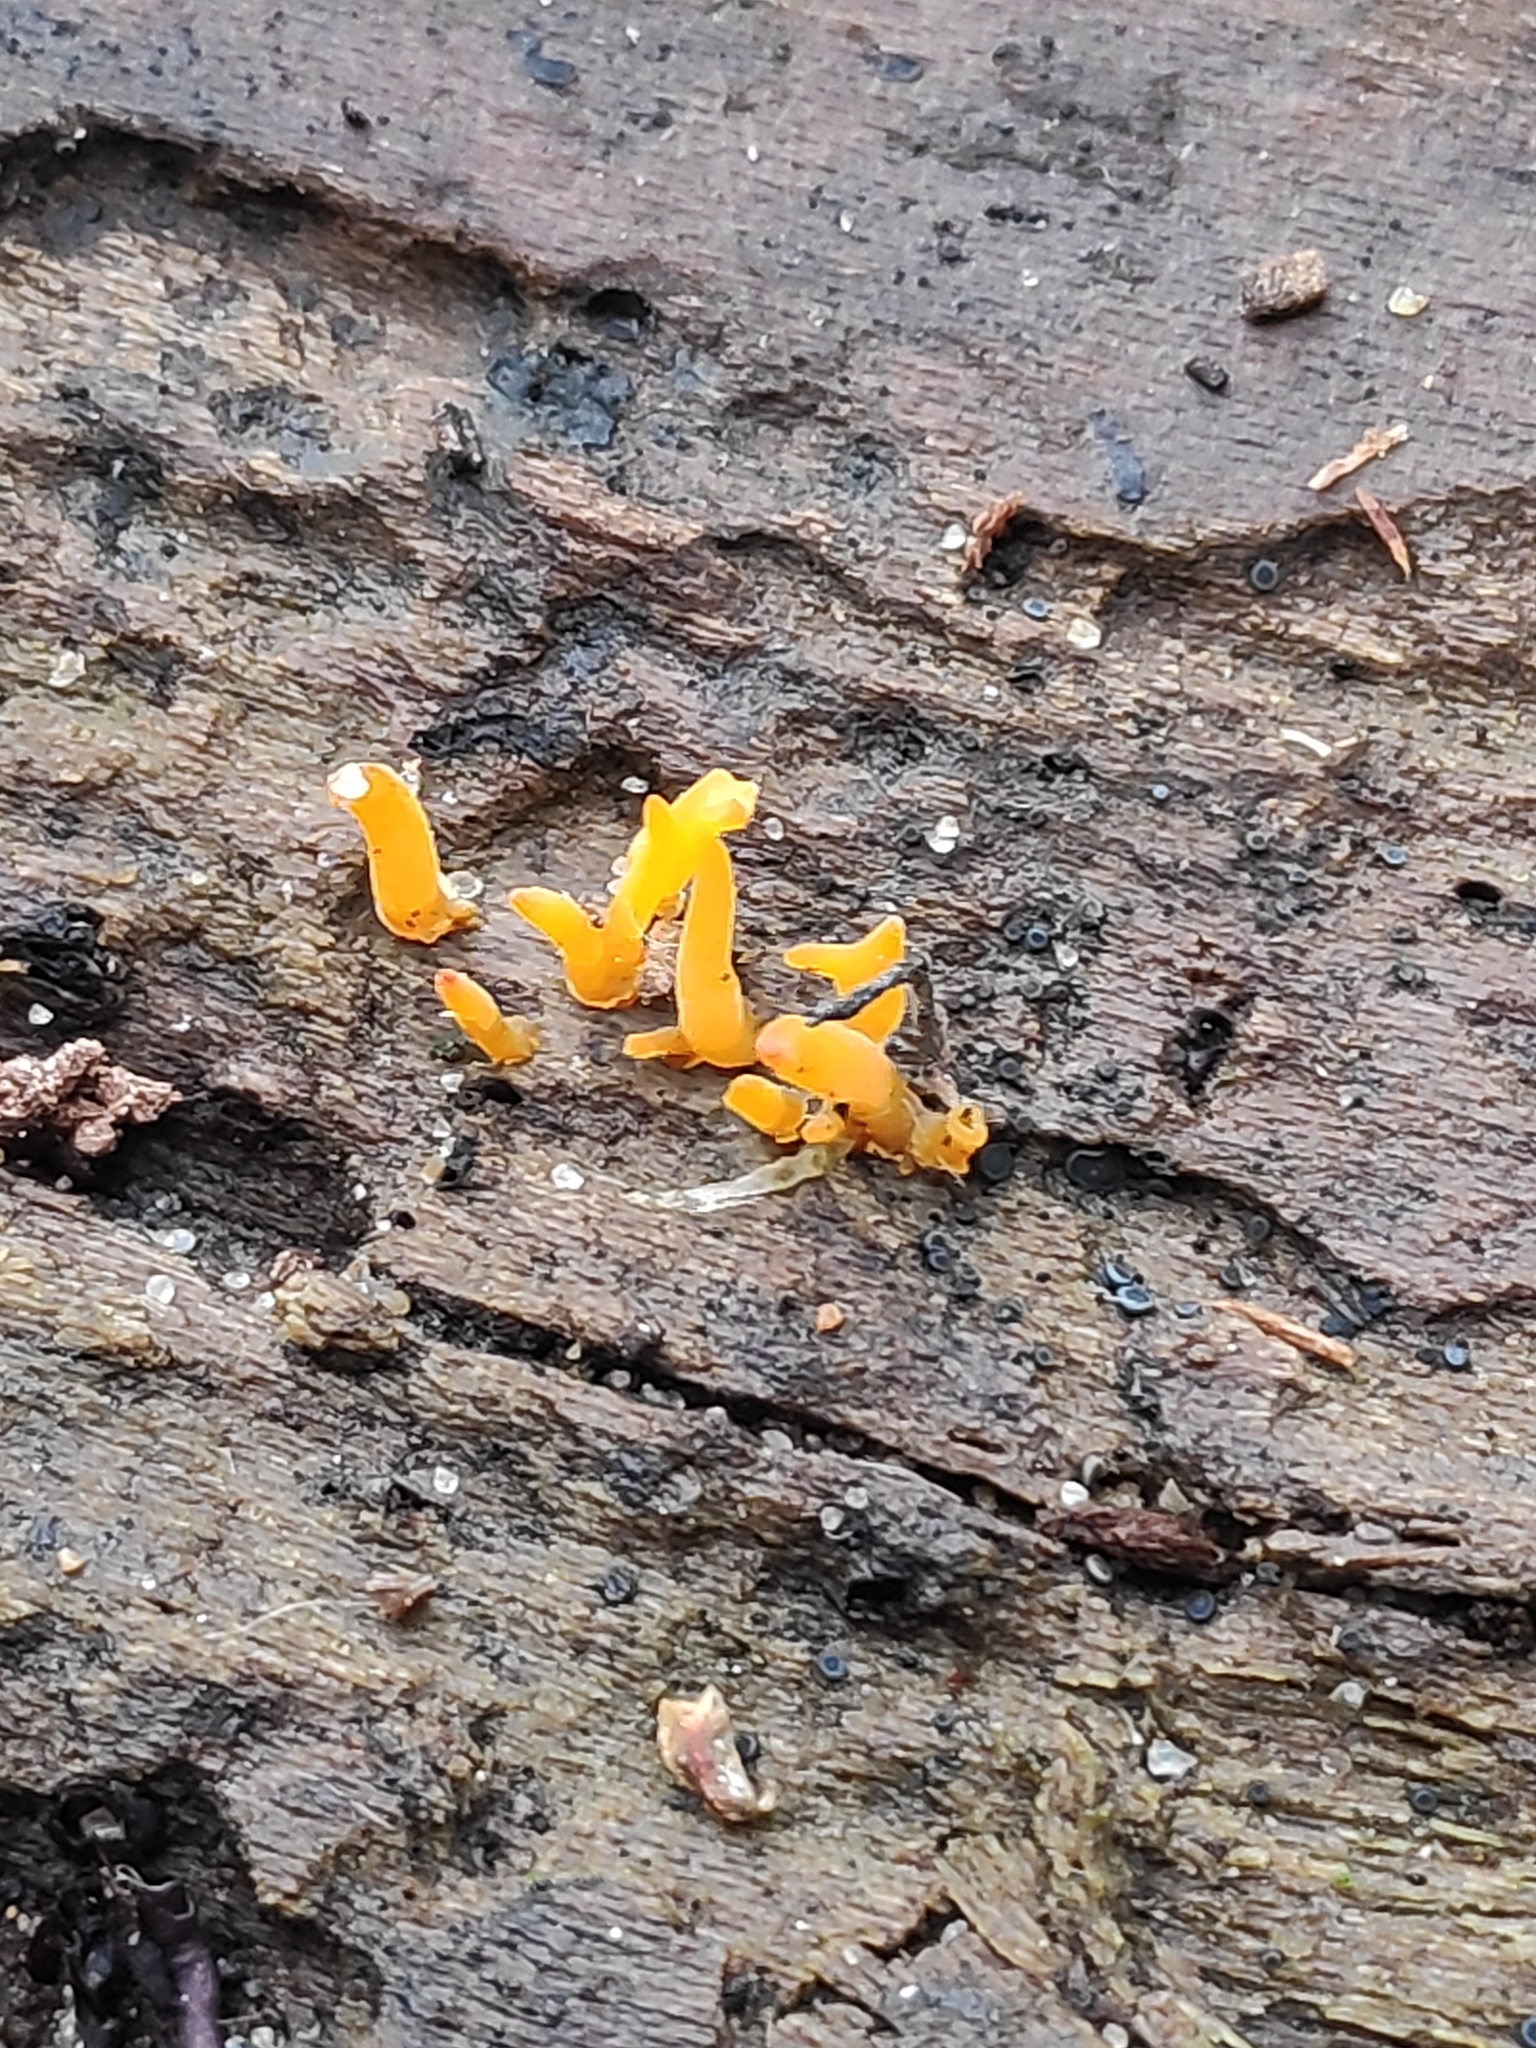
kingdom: Fungi
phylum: Basidiomycota
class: Dacrymycetes
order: Dacrymycetales
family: Dacrymycetaceae
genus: Calocera
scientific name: Calocera cornea
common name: Small stagshorn
